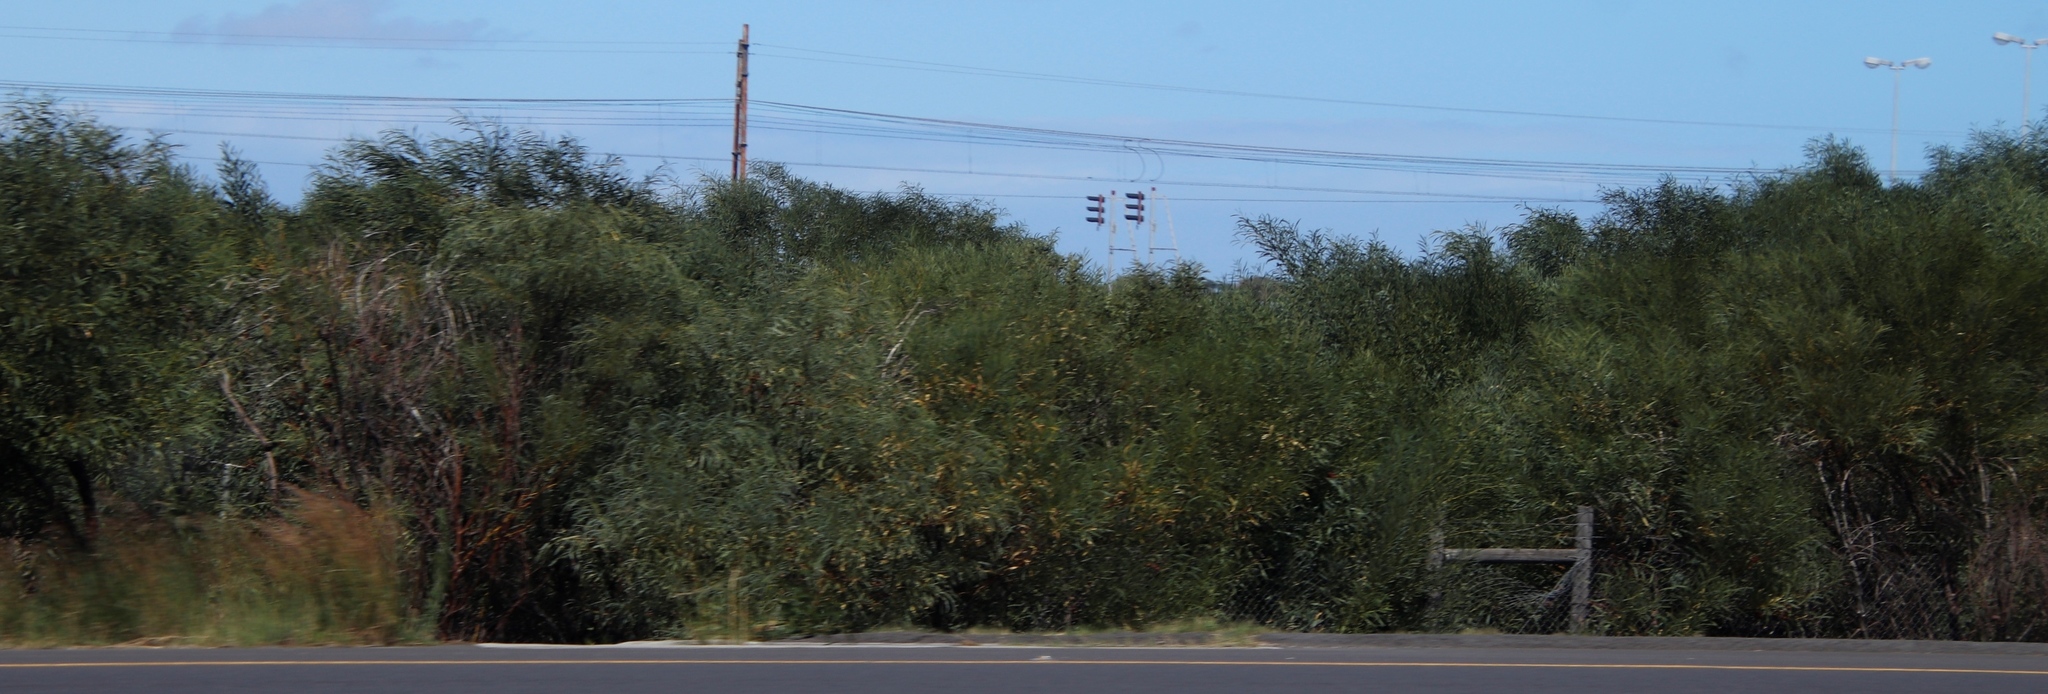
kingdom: Plantae
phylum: Tracheophyta
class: Magnoliopsida
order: Fabales
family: Fabaceae
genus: Acacia
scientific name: Acacia saligna
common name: Orange wattle
